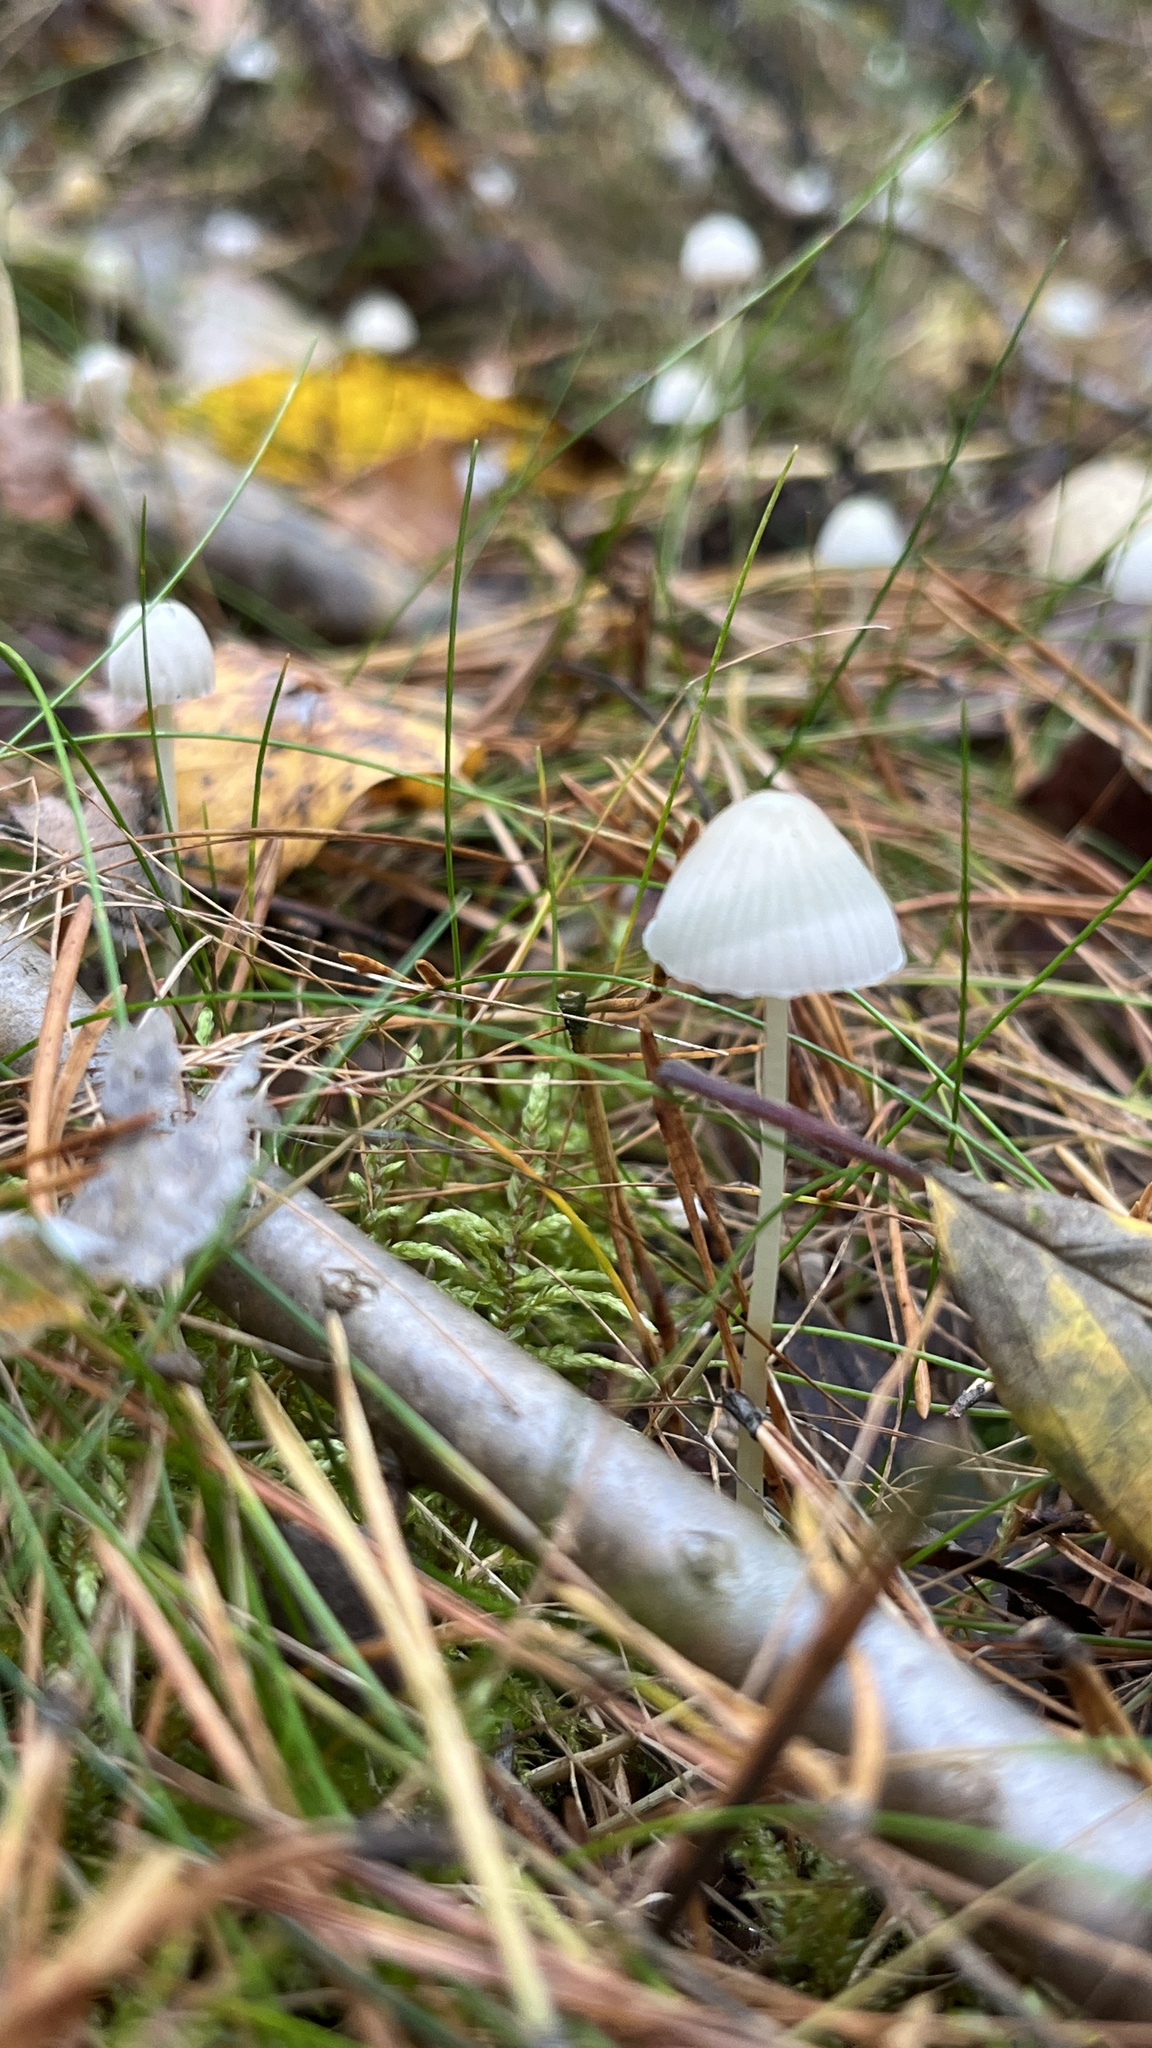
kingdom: Fungi
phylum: Basidiomycota
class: Agaricomycetes
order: Agaricales
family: Mycenaceae
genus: Mycena
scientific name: Mycena epipterygia
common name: Yellowleg bonnet
